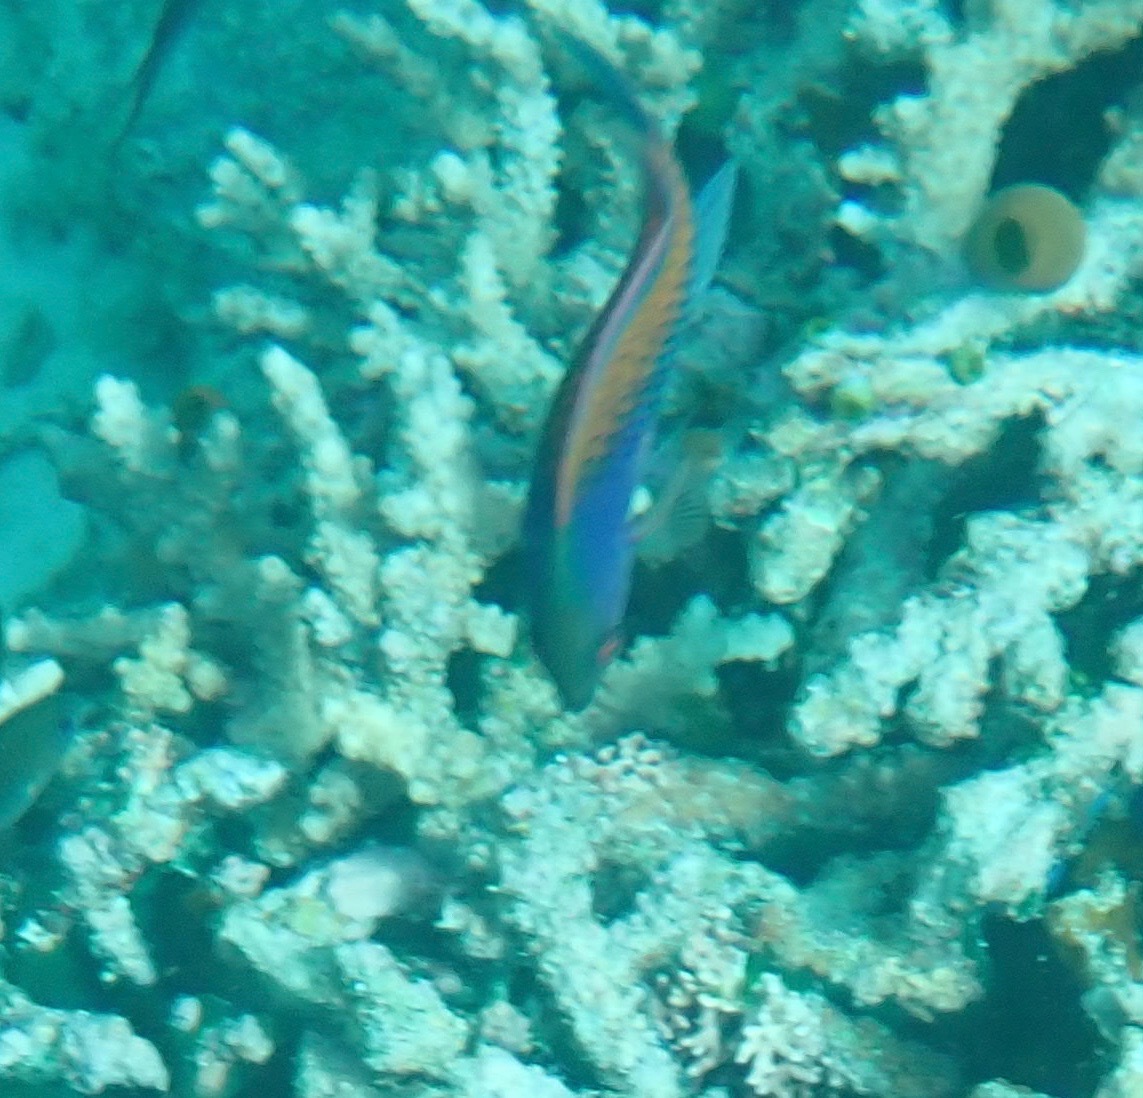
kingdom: Animalia
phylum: Chordata
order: Perciformes
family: Labridae
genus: Cirrhilabrus
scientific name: Cirrhilabrus cyanopleura
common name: Coralline wrasse
